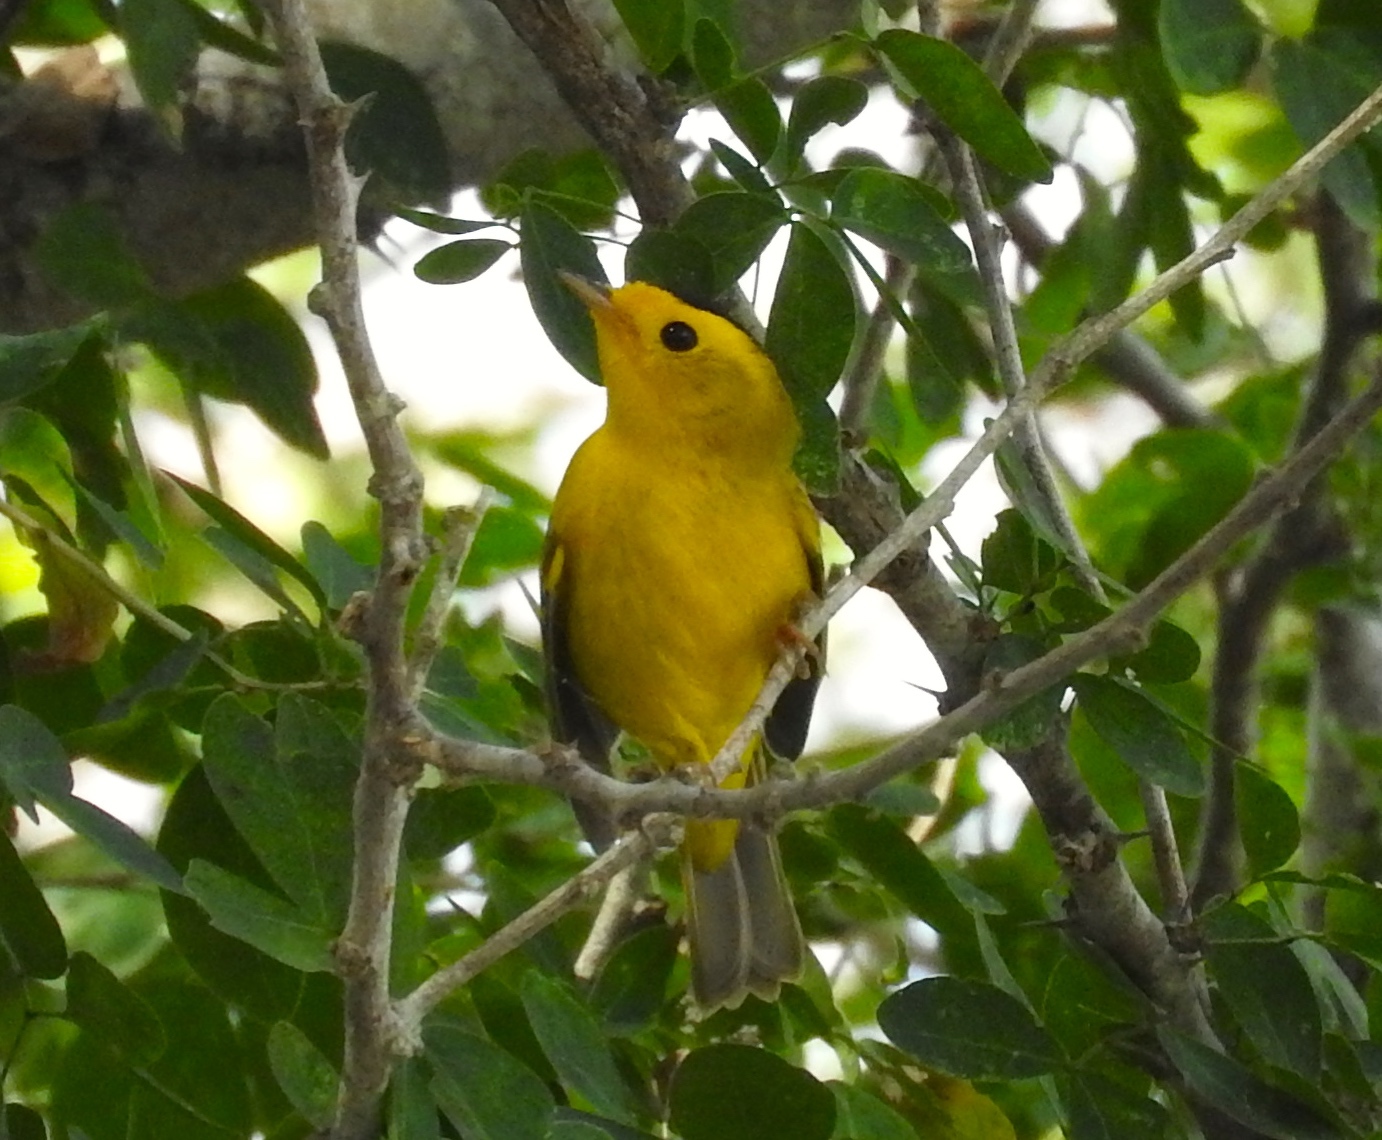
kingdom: Animalia
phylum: Chordata
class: Aves
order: Passeriformes
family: Parulidae
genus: Cardellina
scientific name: Cardellina pusilla
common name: Wilson's warbler
